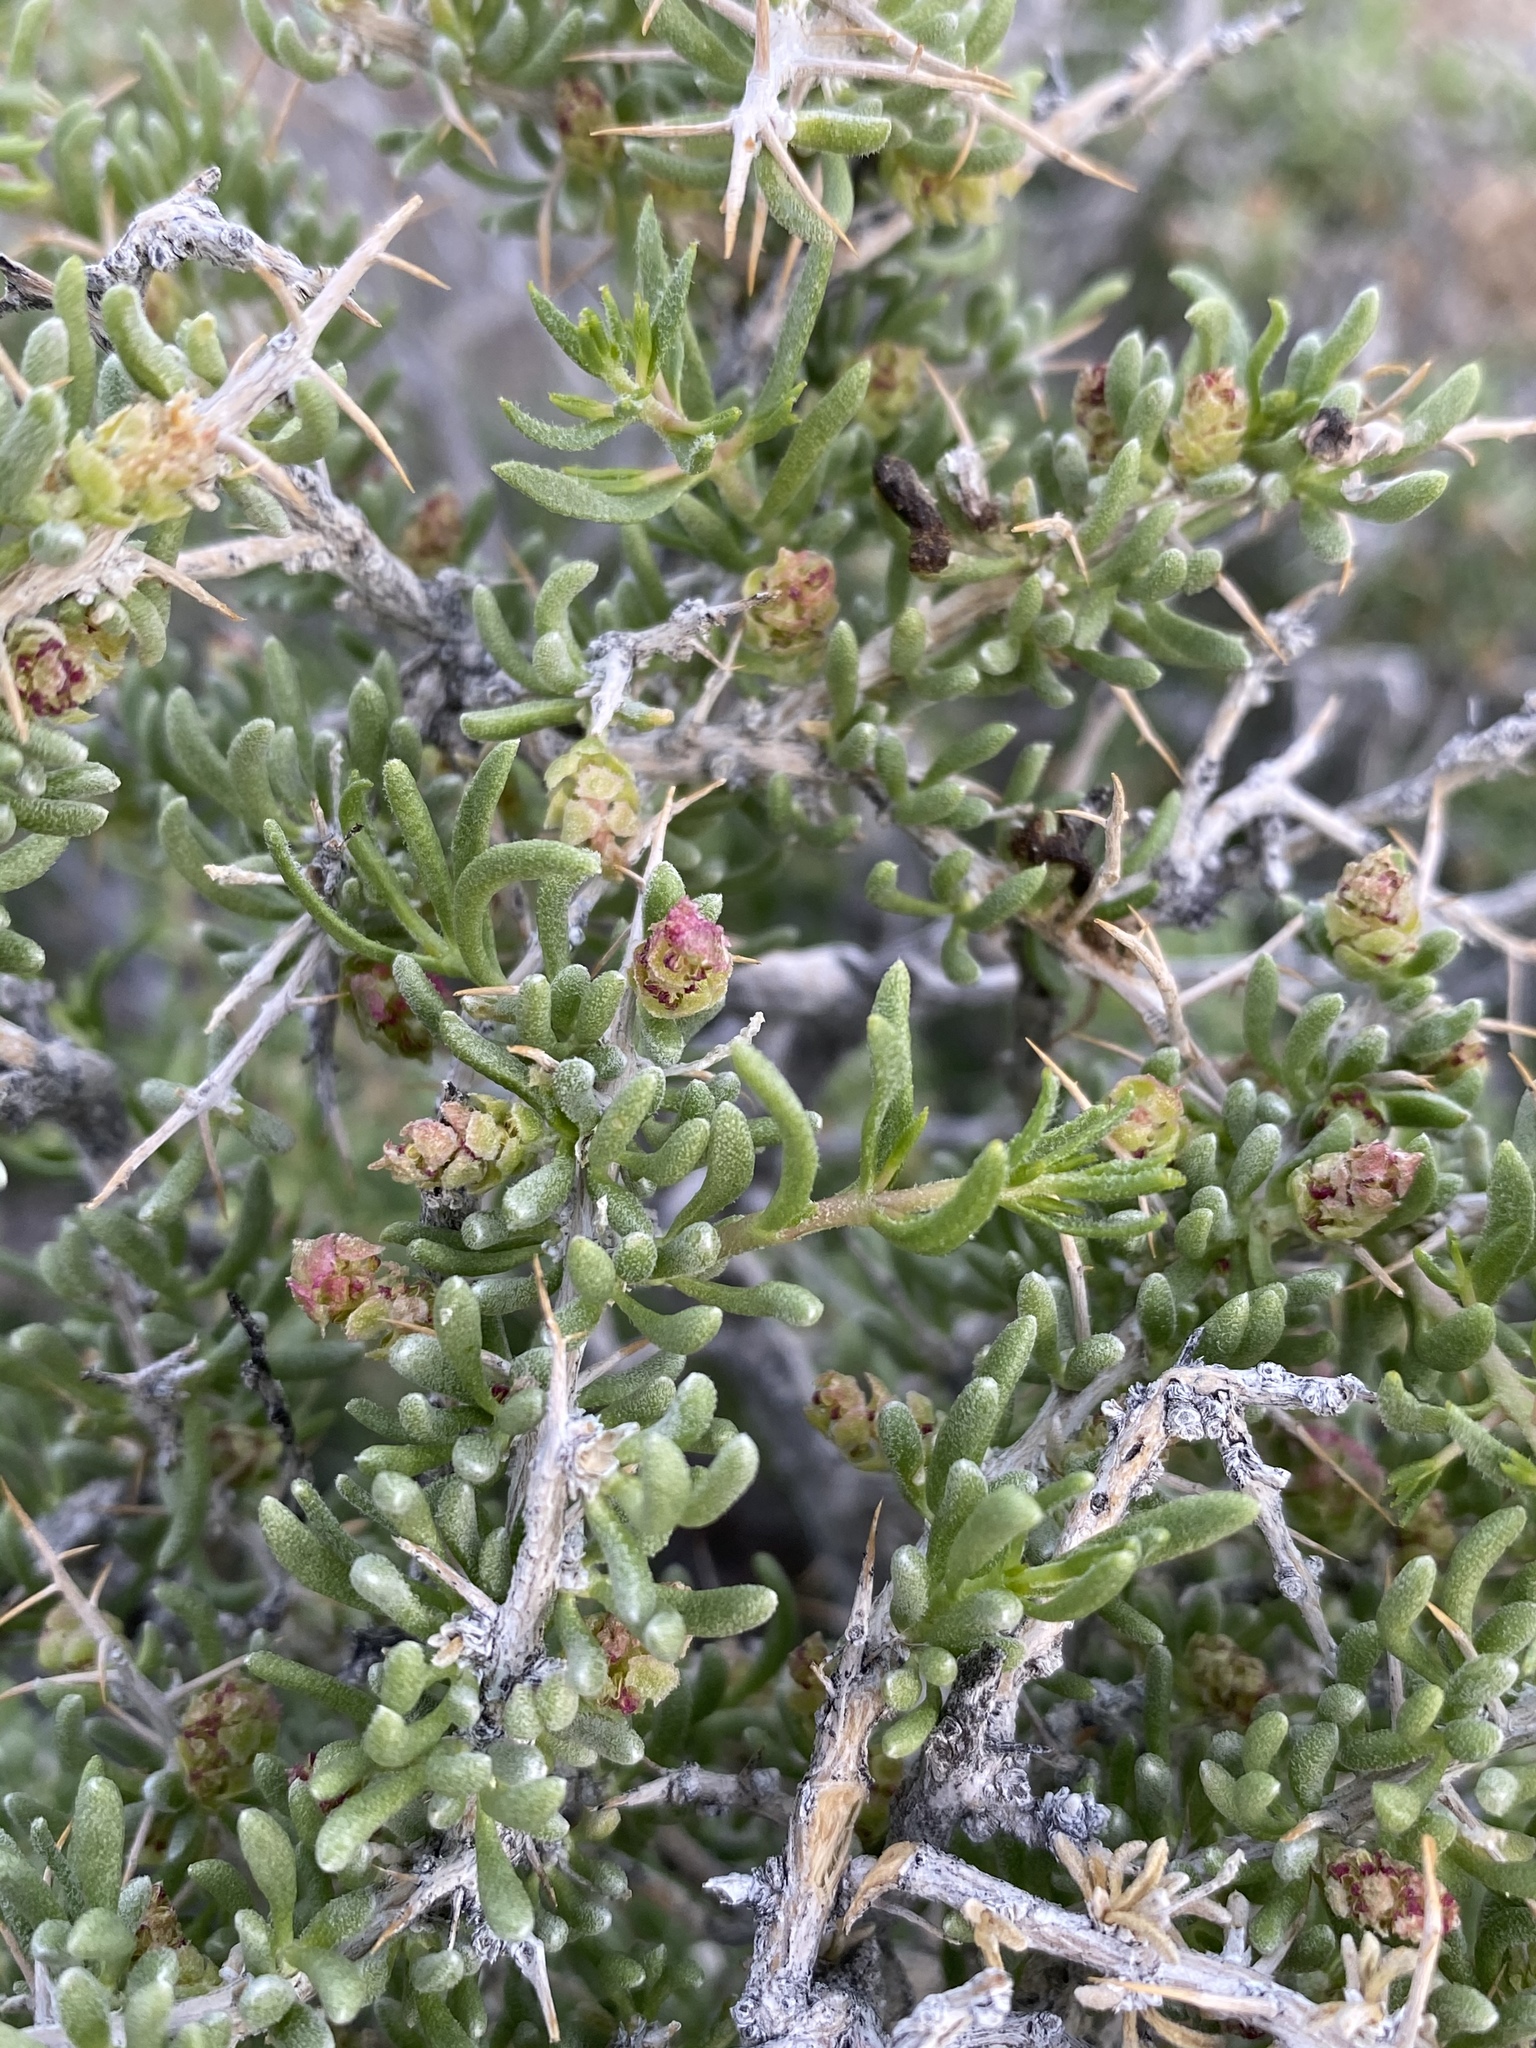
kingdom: Plantae
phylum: Tracheophyta
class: Magnoliopsida
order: Caryophyllales
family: Sarcobataceae
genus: Sarcobatus
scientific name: Sarcobatus baileyi
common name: Bailey greasewood
